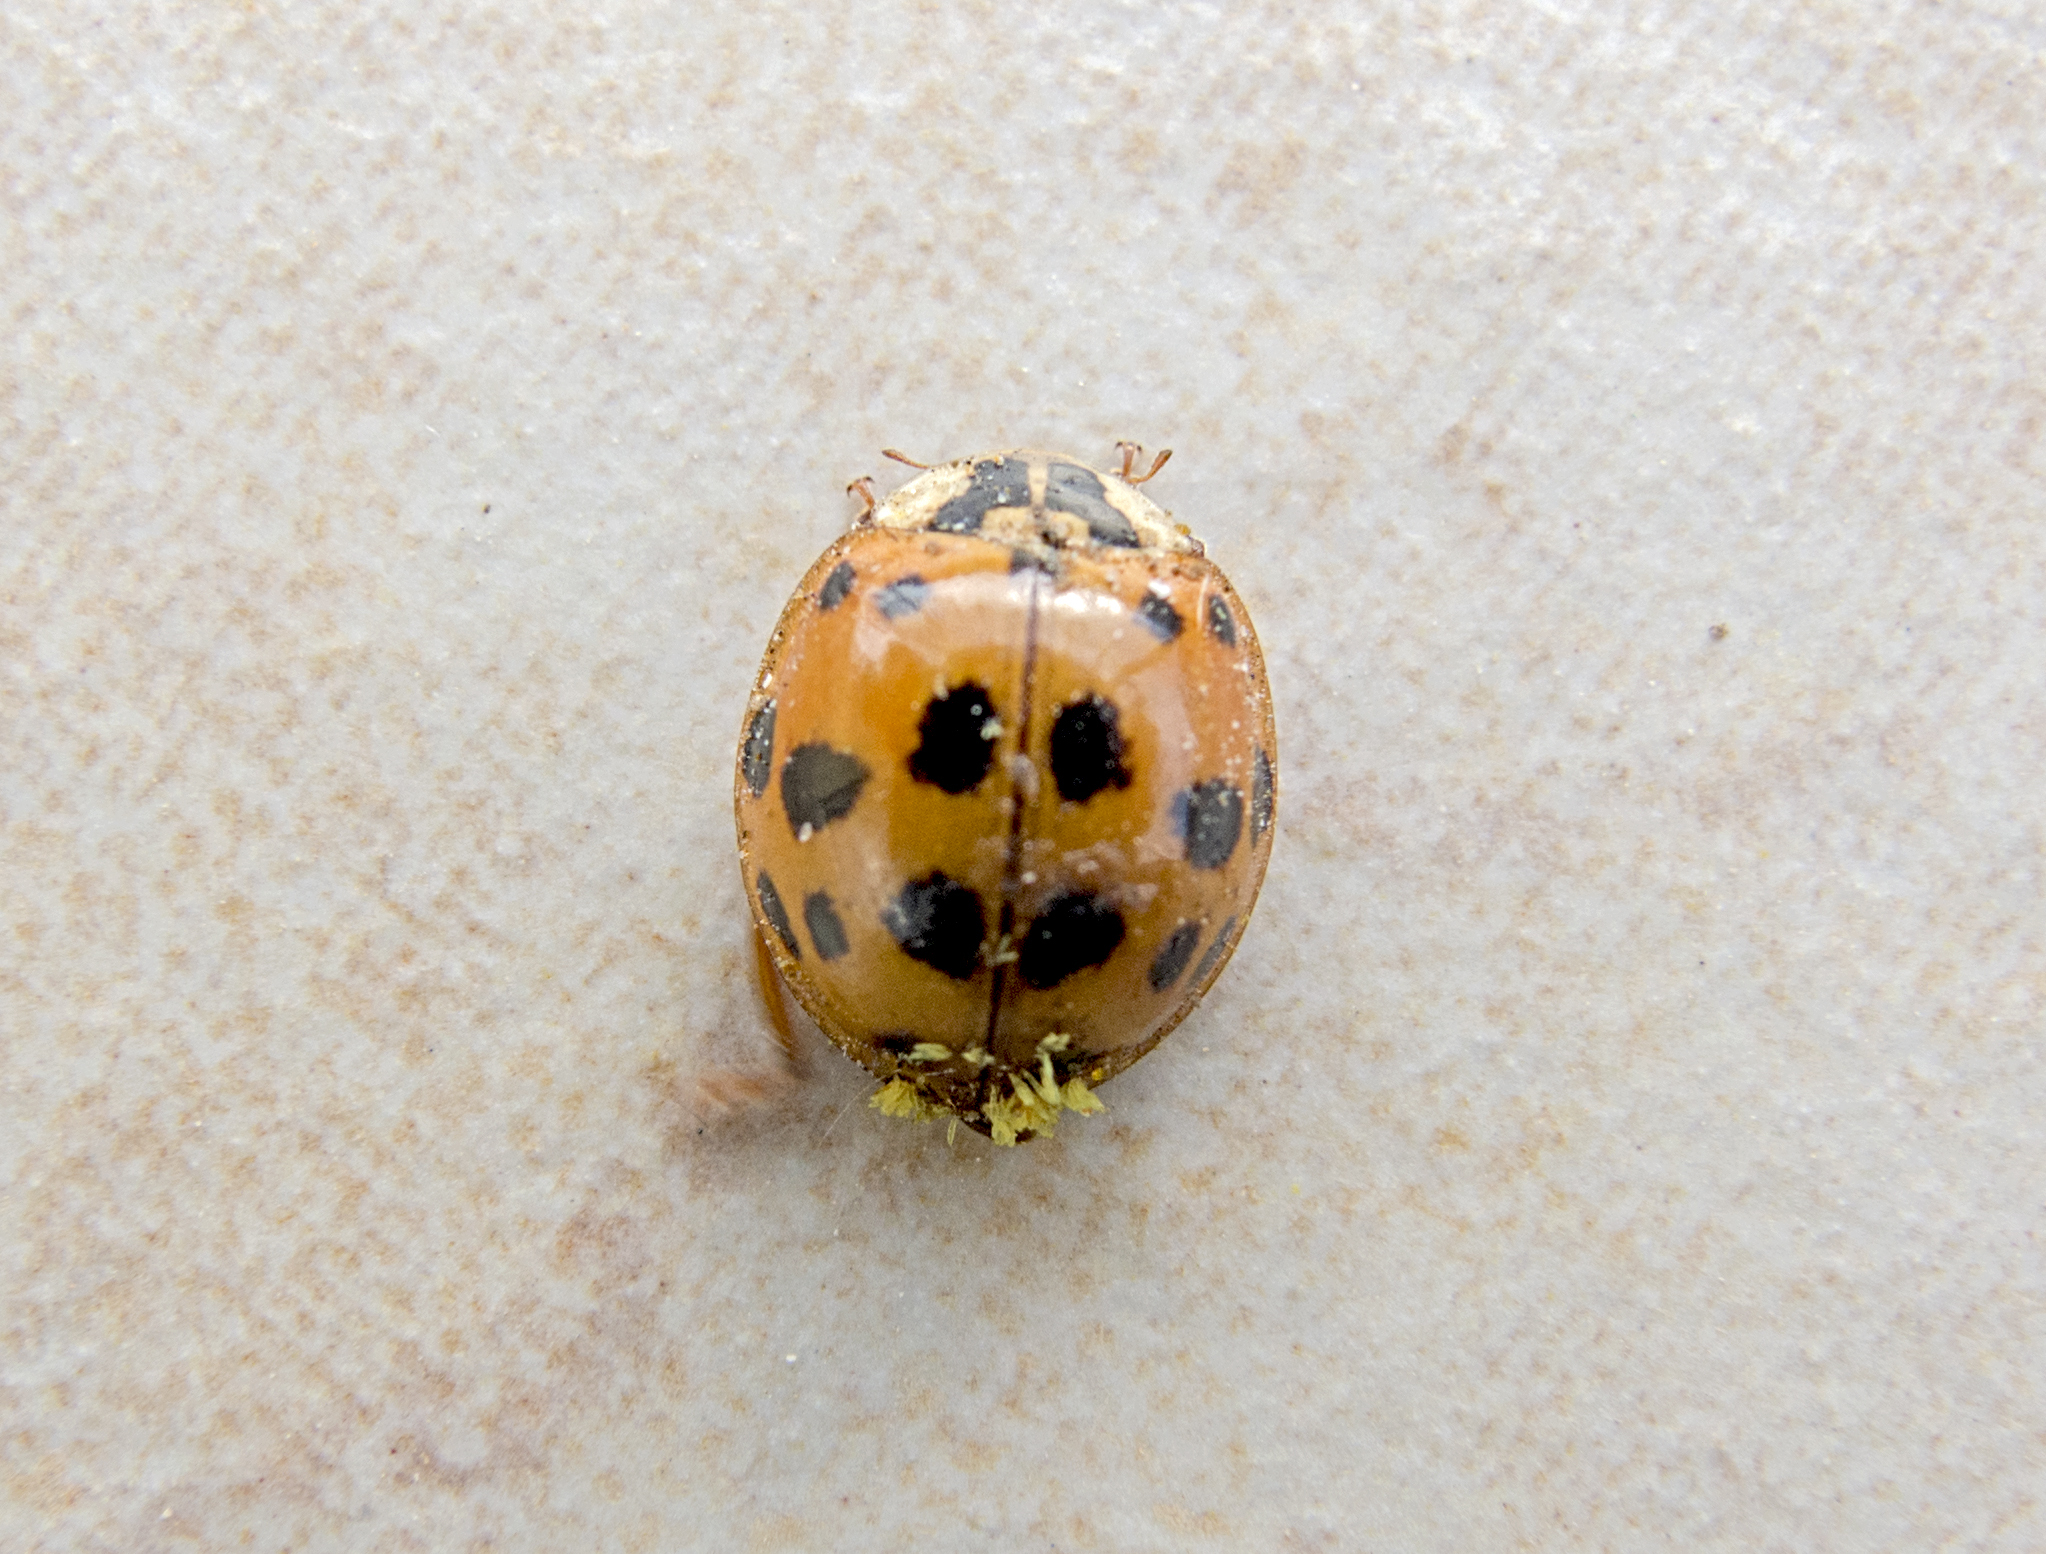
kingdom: Fungi
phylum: Ascomycota
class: Laboulbeniomycetes
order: Laboulbeniales
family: Laboulbeniaceae
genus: Hesperomyces
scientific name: Hesperomyces harmoniae
